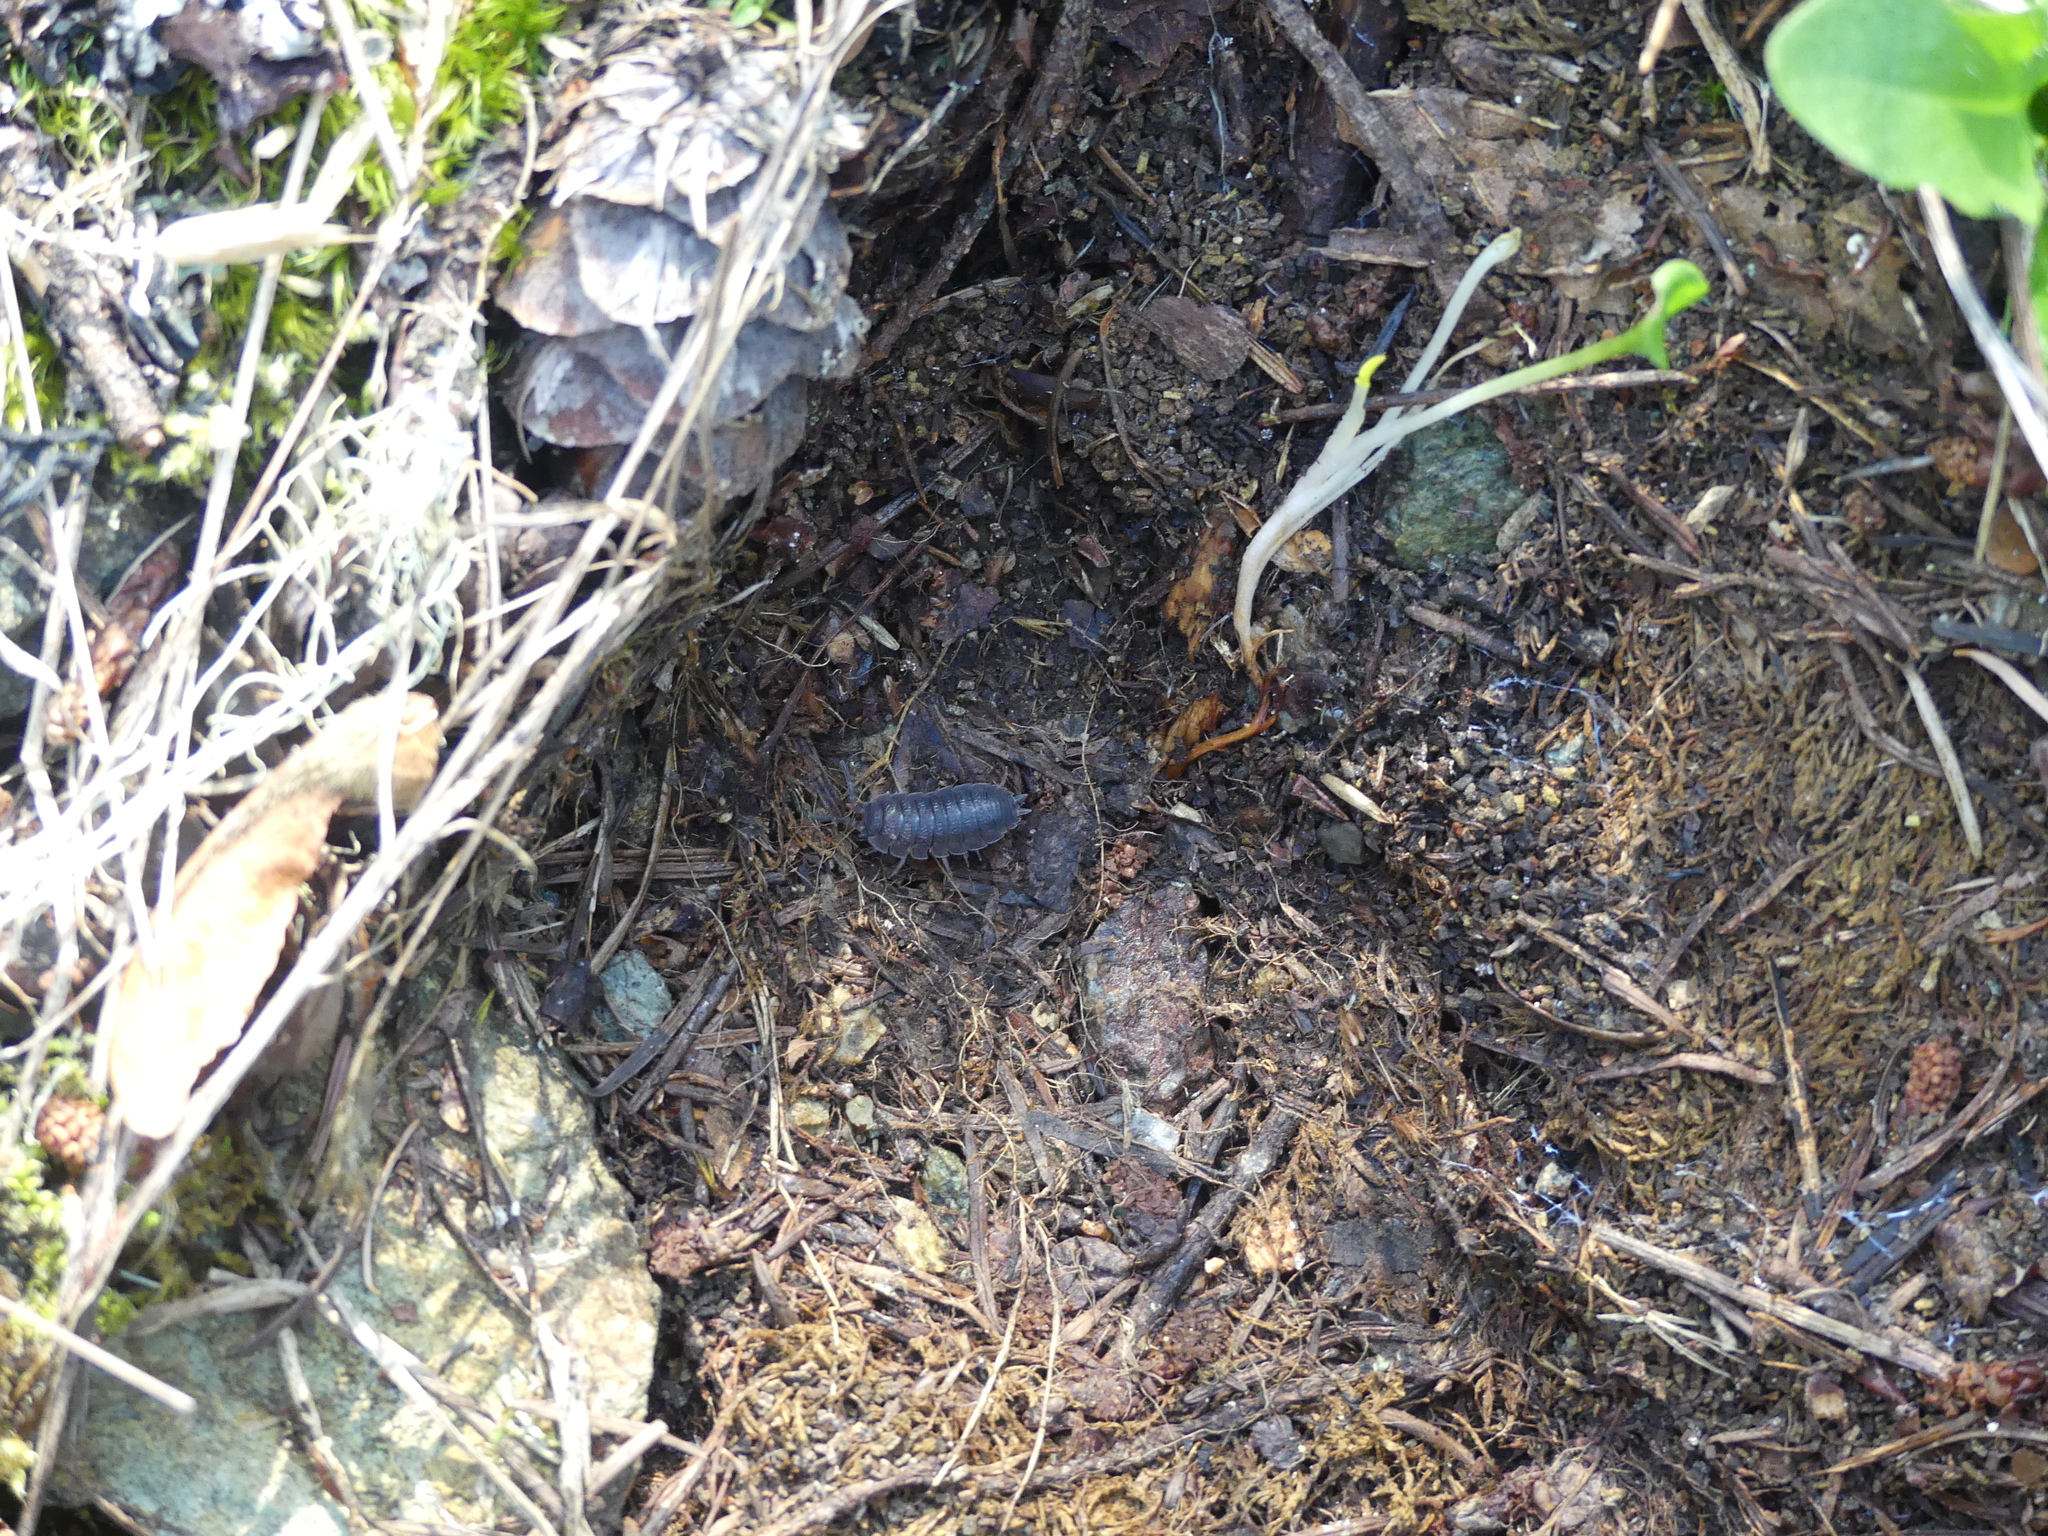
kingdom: Animalia
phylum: Arthropoda
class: Malacostraca
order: Isopoda
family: Porcellionidae
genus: Porcellio
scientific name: Porcellio scaber
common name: Common rough woodlouse
